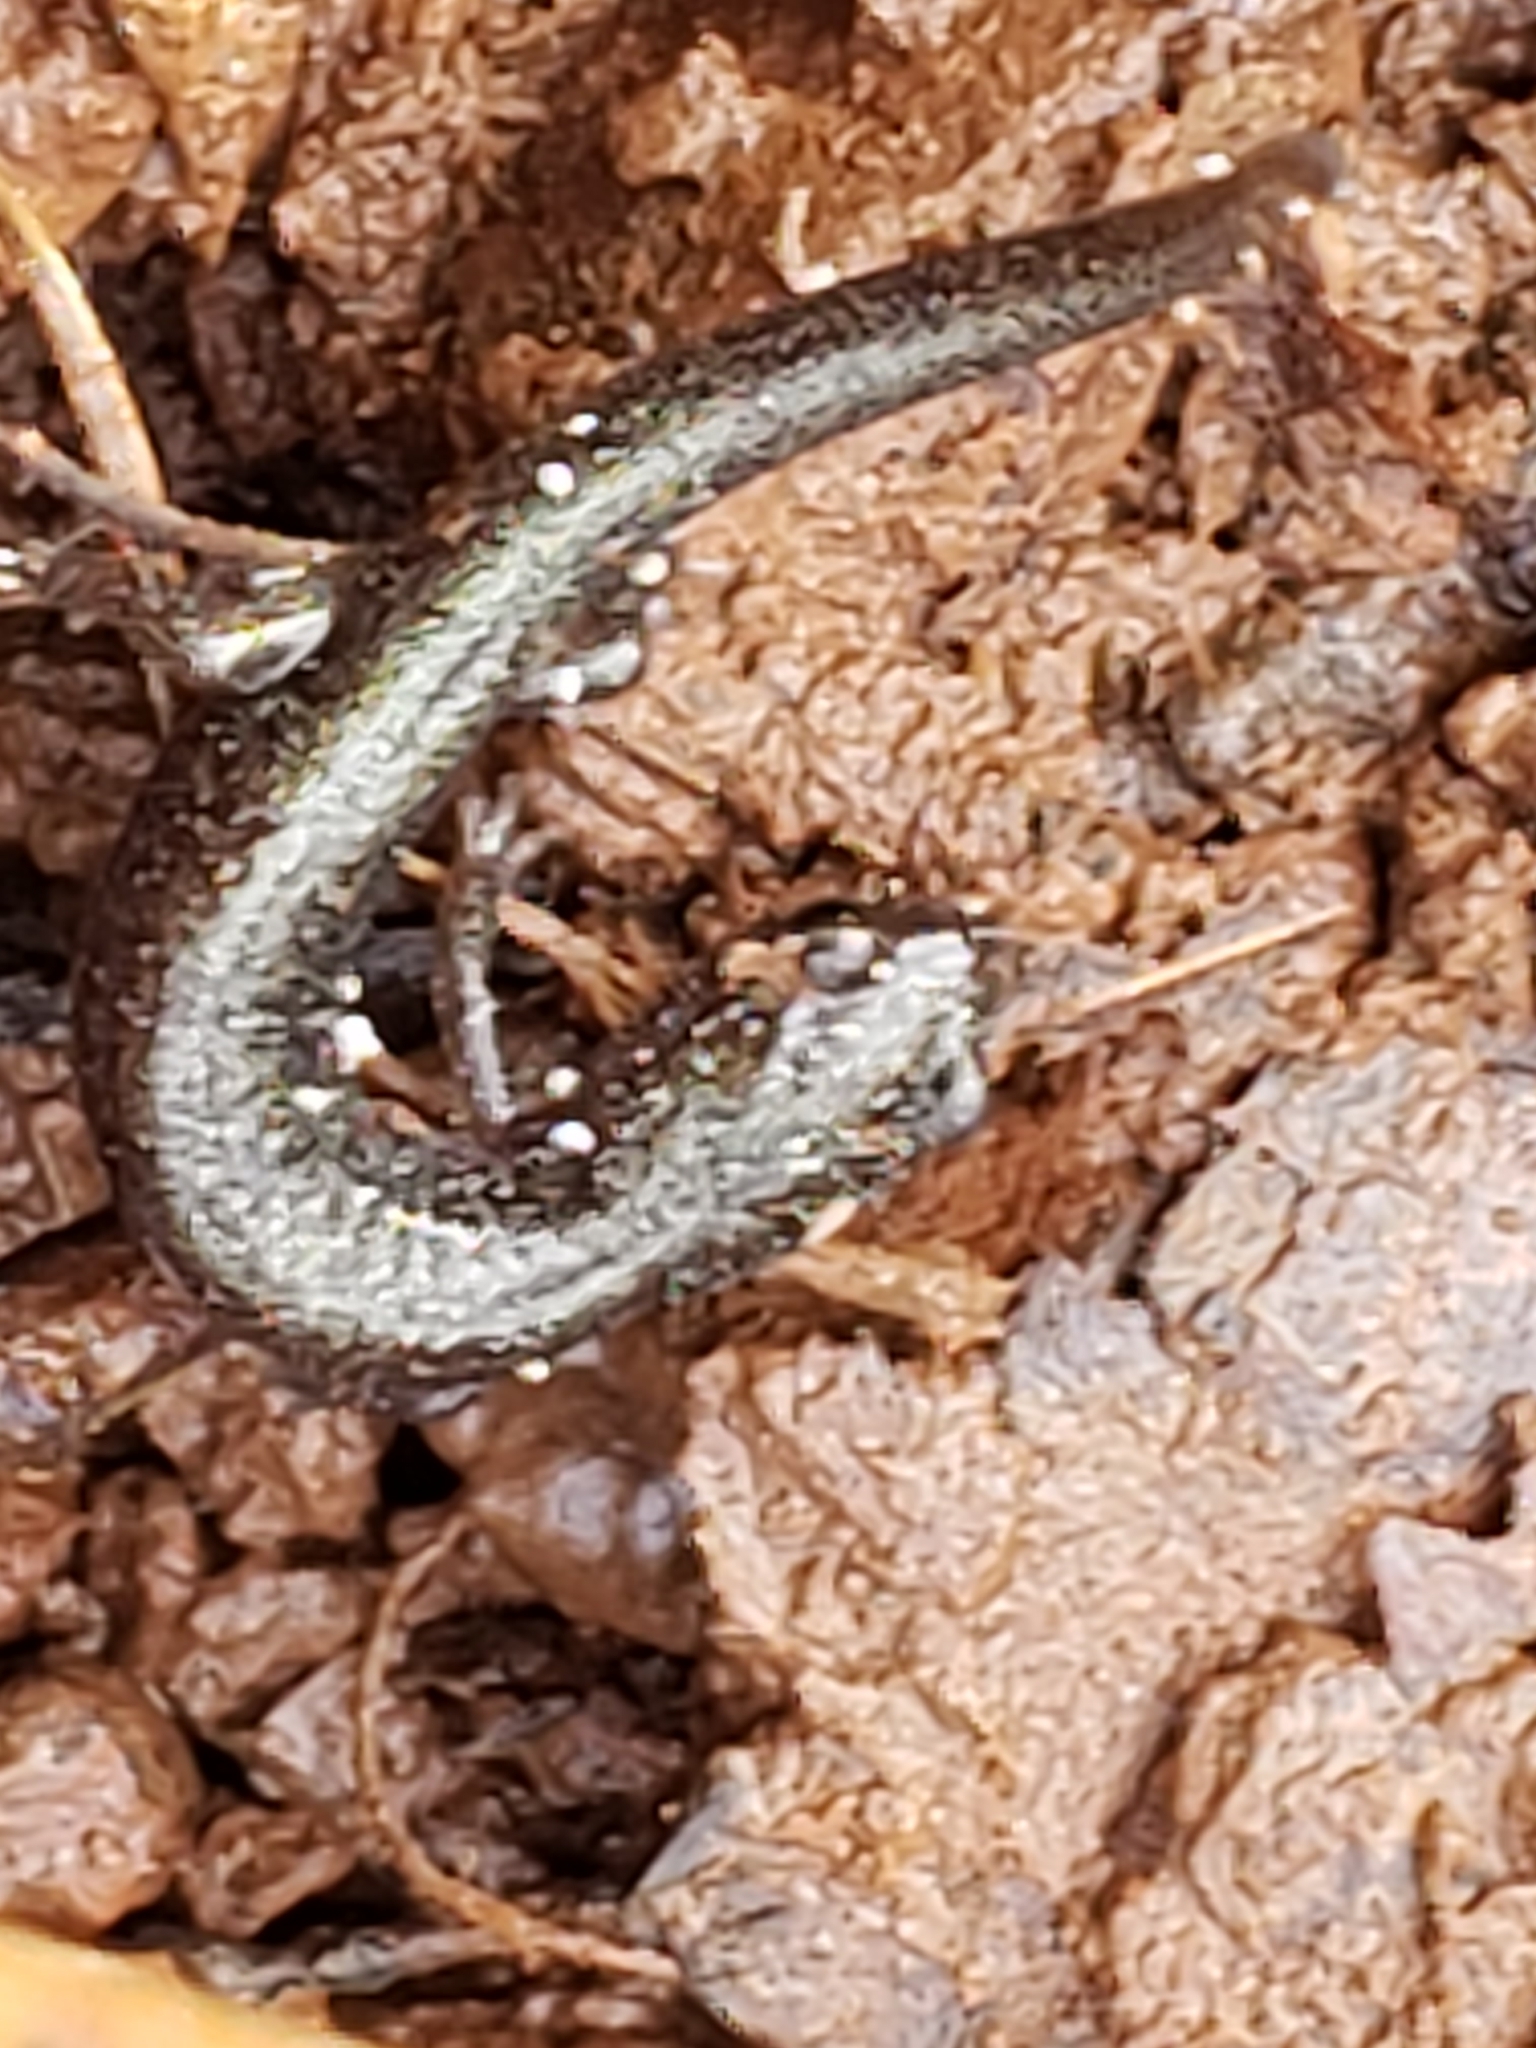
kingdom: Animalia
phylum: Chordata
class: Amphibia
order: Caudata
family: Plethodontidae
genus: Plethodon
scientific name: Plethodon cinereus
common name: Redback salamander
